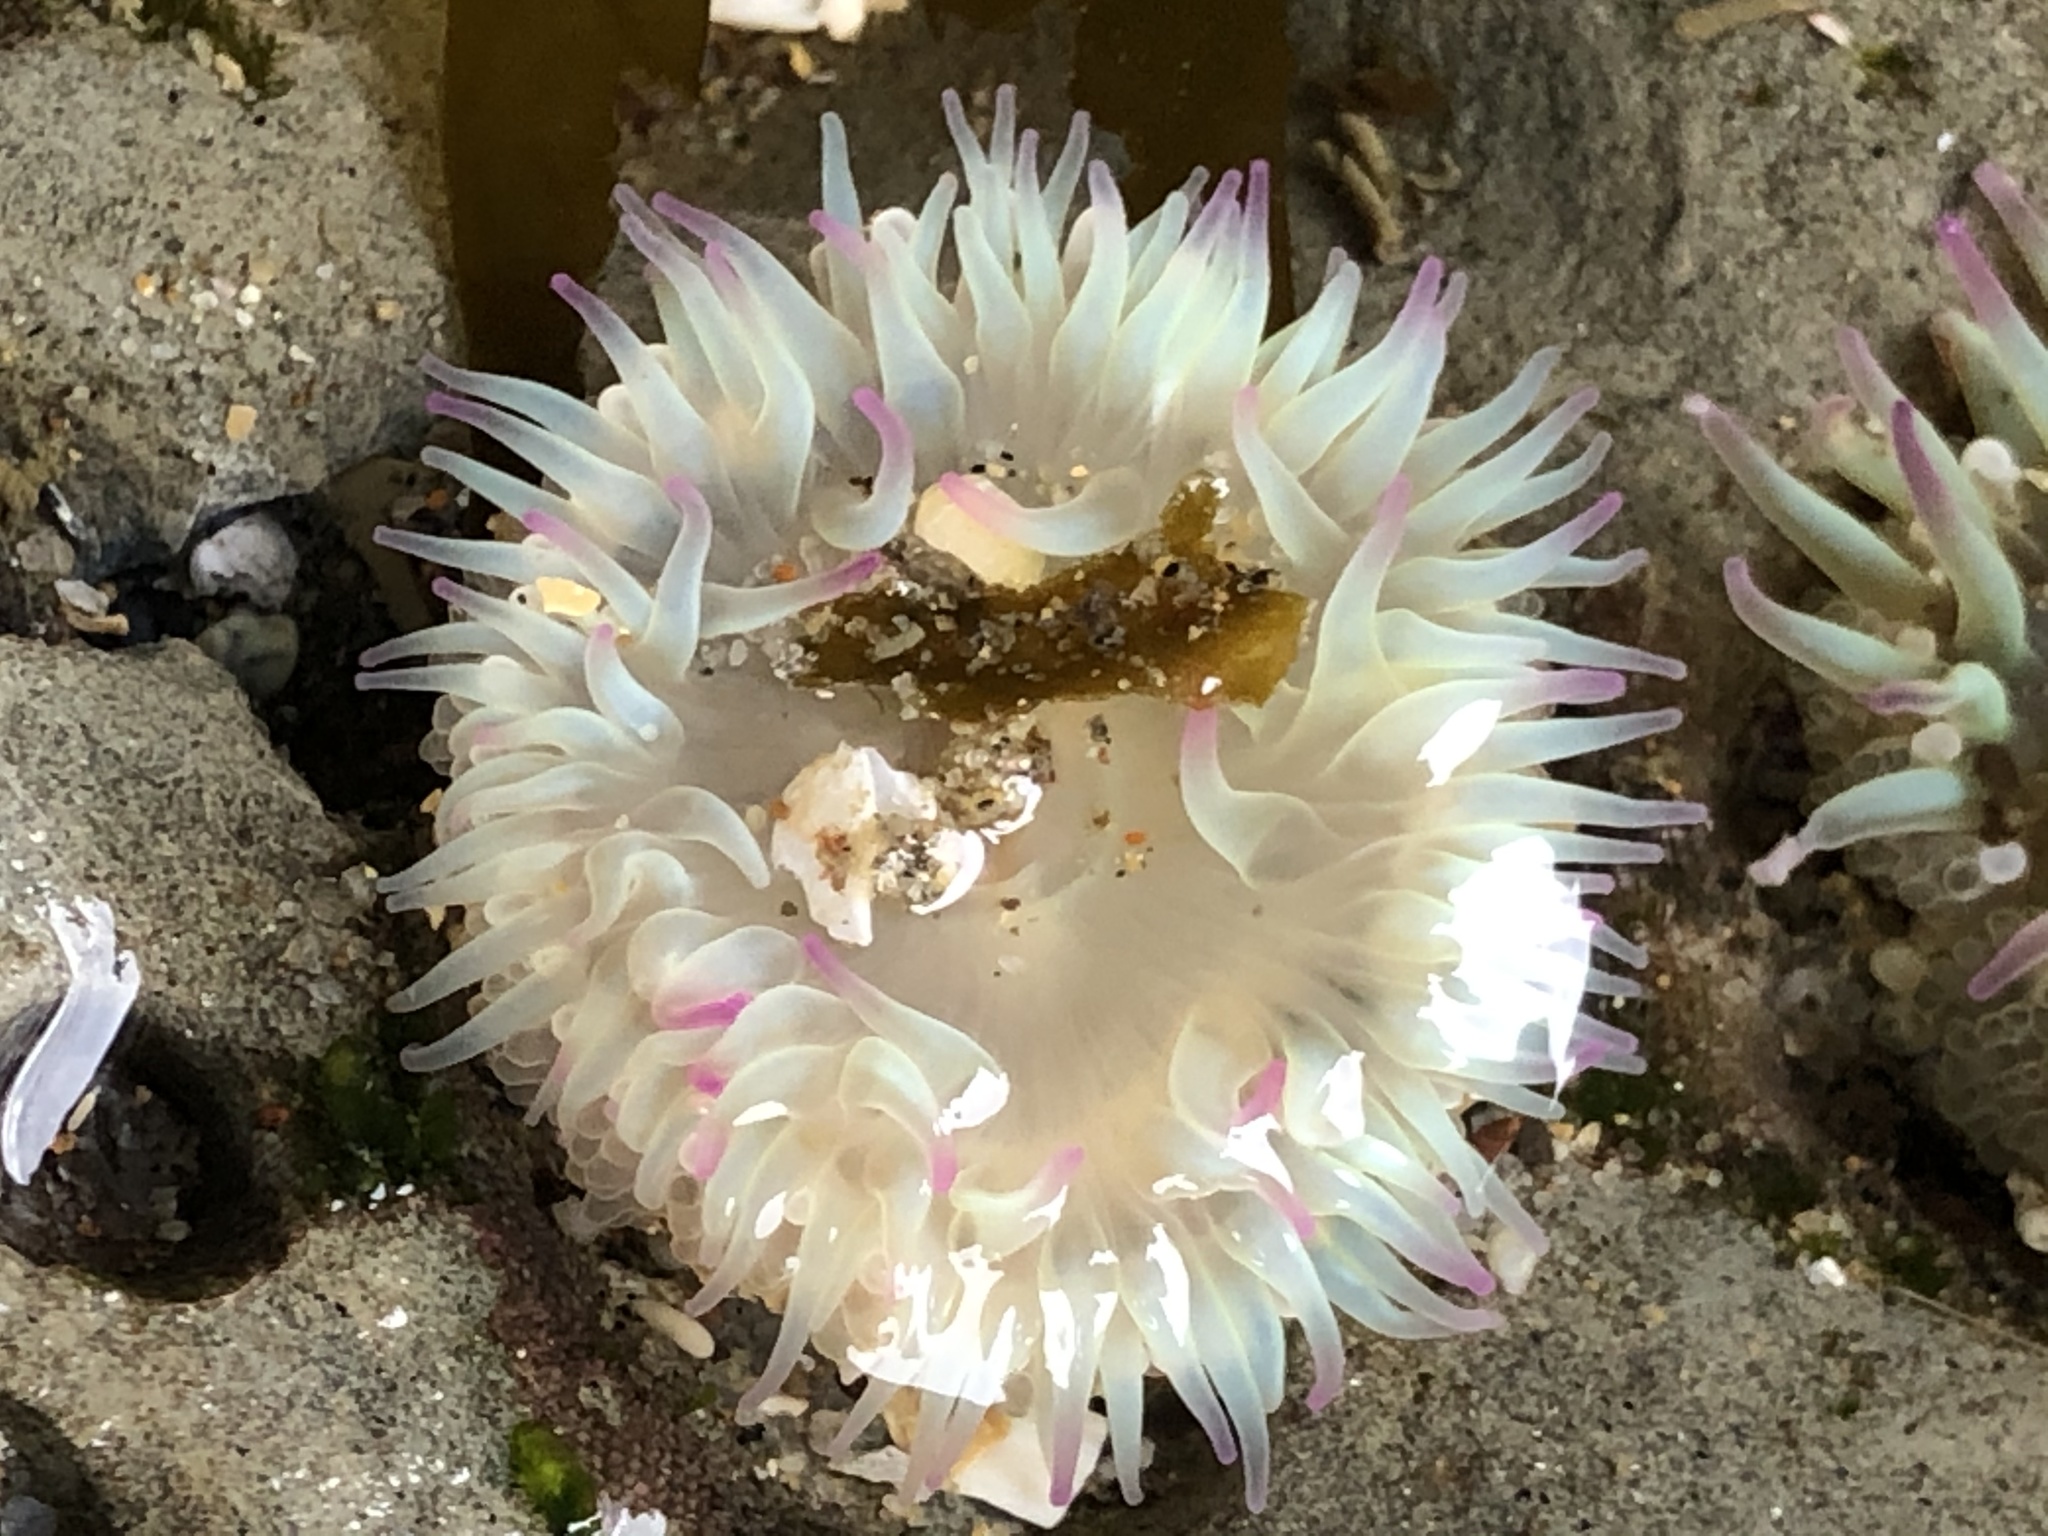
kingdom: Animalia
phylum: Cnidaria
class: Anthozoa
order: Actiniaria
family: Actiniidae
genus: Anthopleura
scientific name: Anthopleura elegantissima
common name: Clonal anemone
